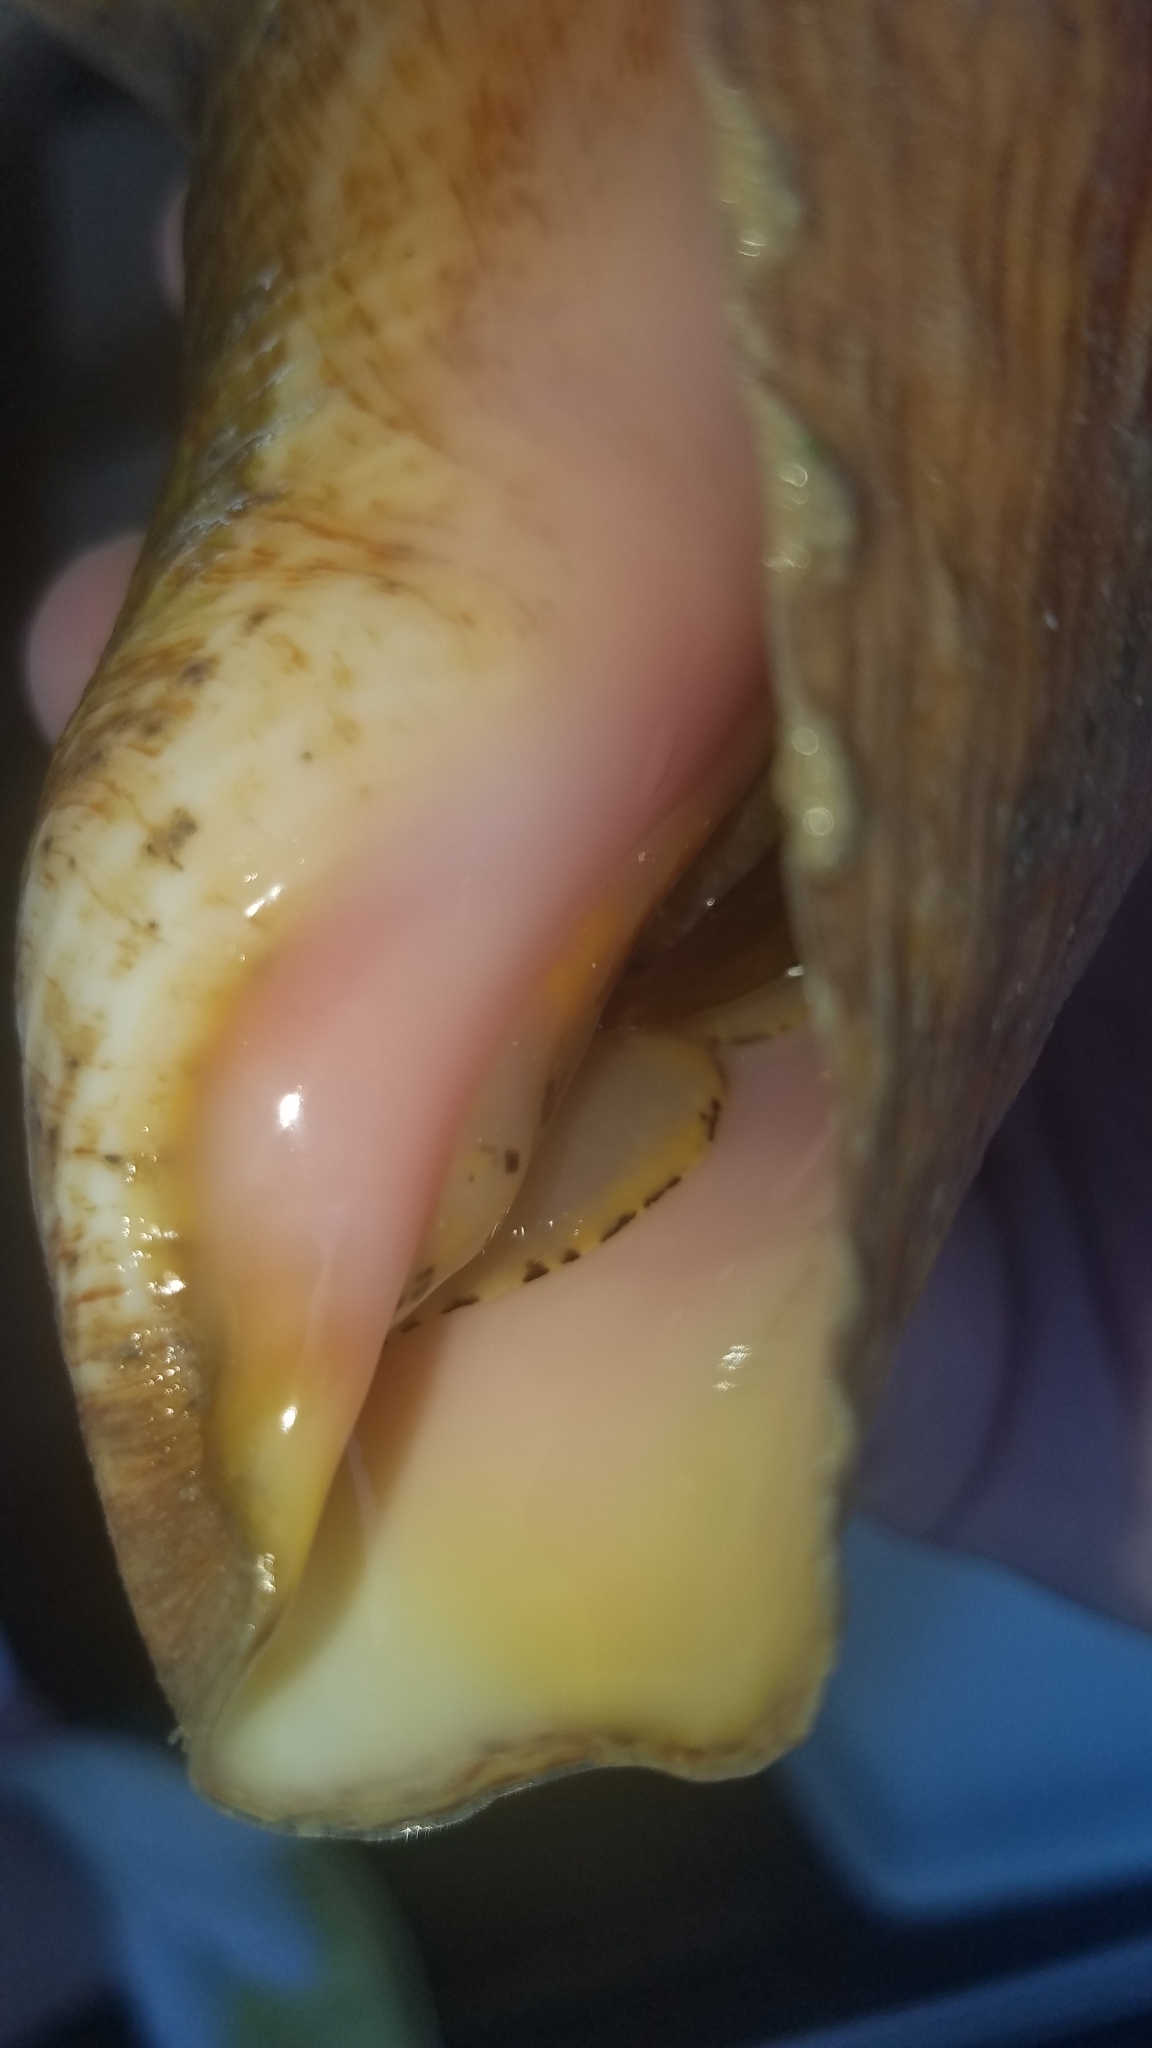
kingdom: Animalia
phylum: Mollusca
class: Gastropoda
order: Littorinimorpha
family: Strombidae
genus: Aliger
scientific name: Aliger gigas
